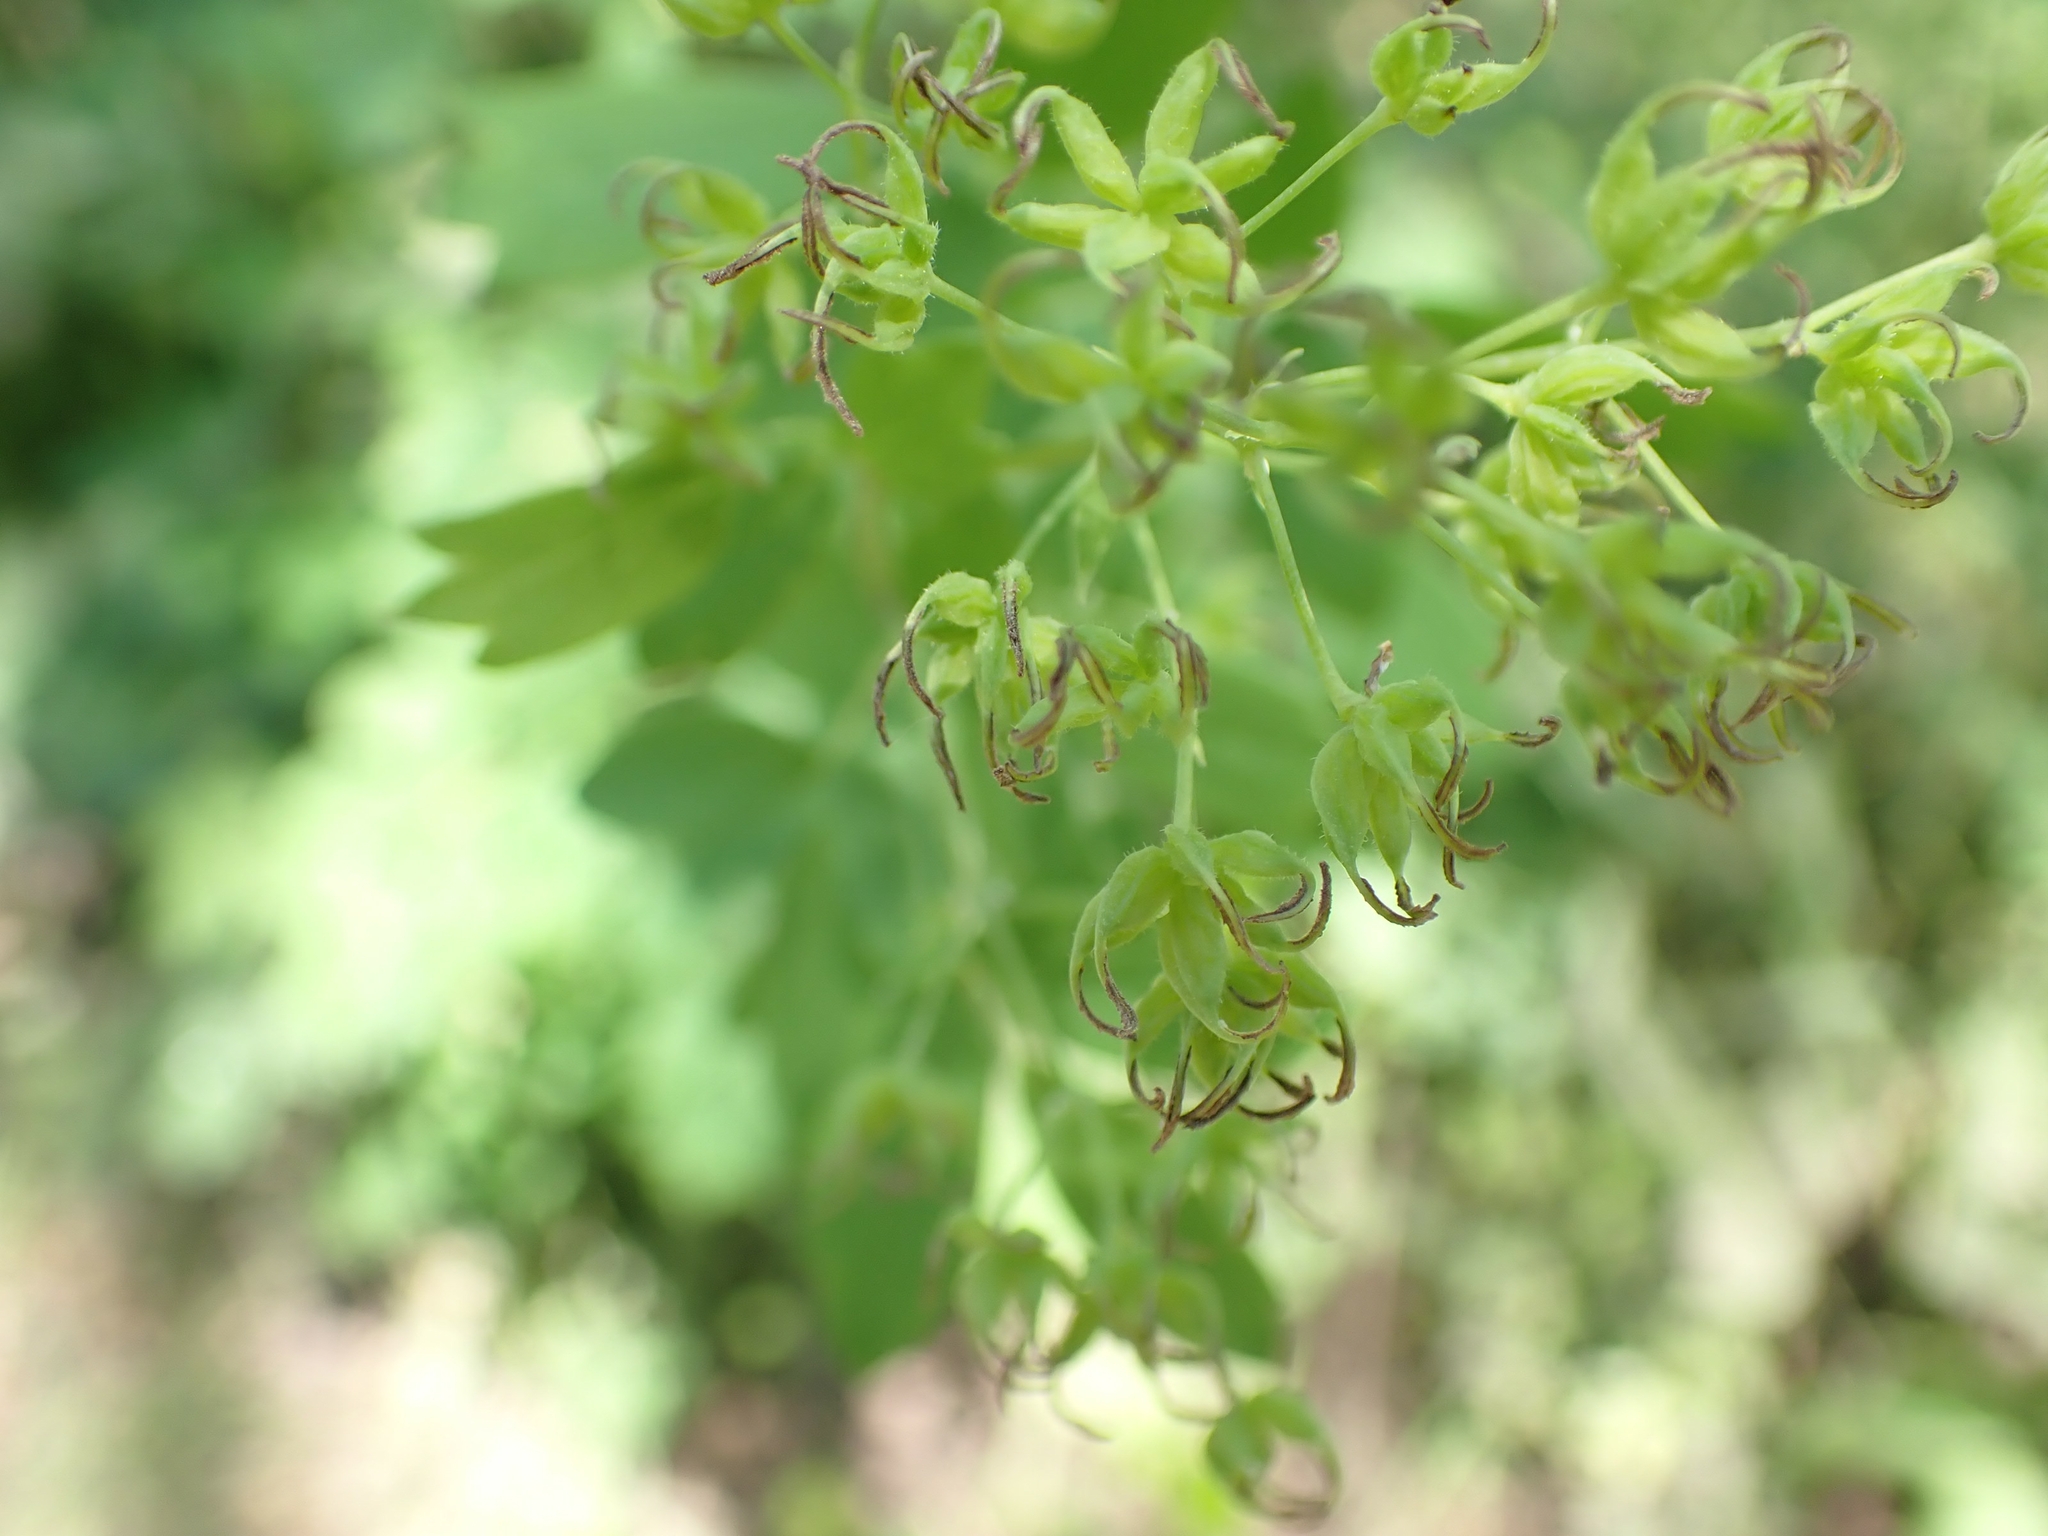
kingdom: Plantae
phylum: Tracheophyta
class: Magnoliopsida
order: Ranunculales
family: Ranunculaceae
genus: Thalictrum
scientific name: Thalictrum dasycarpum
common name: Purple meadow-rue
